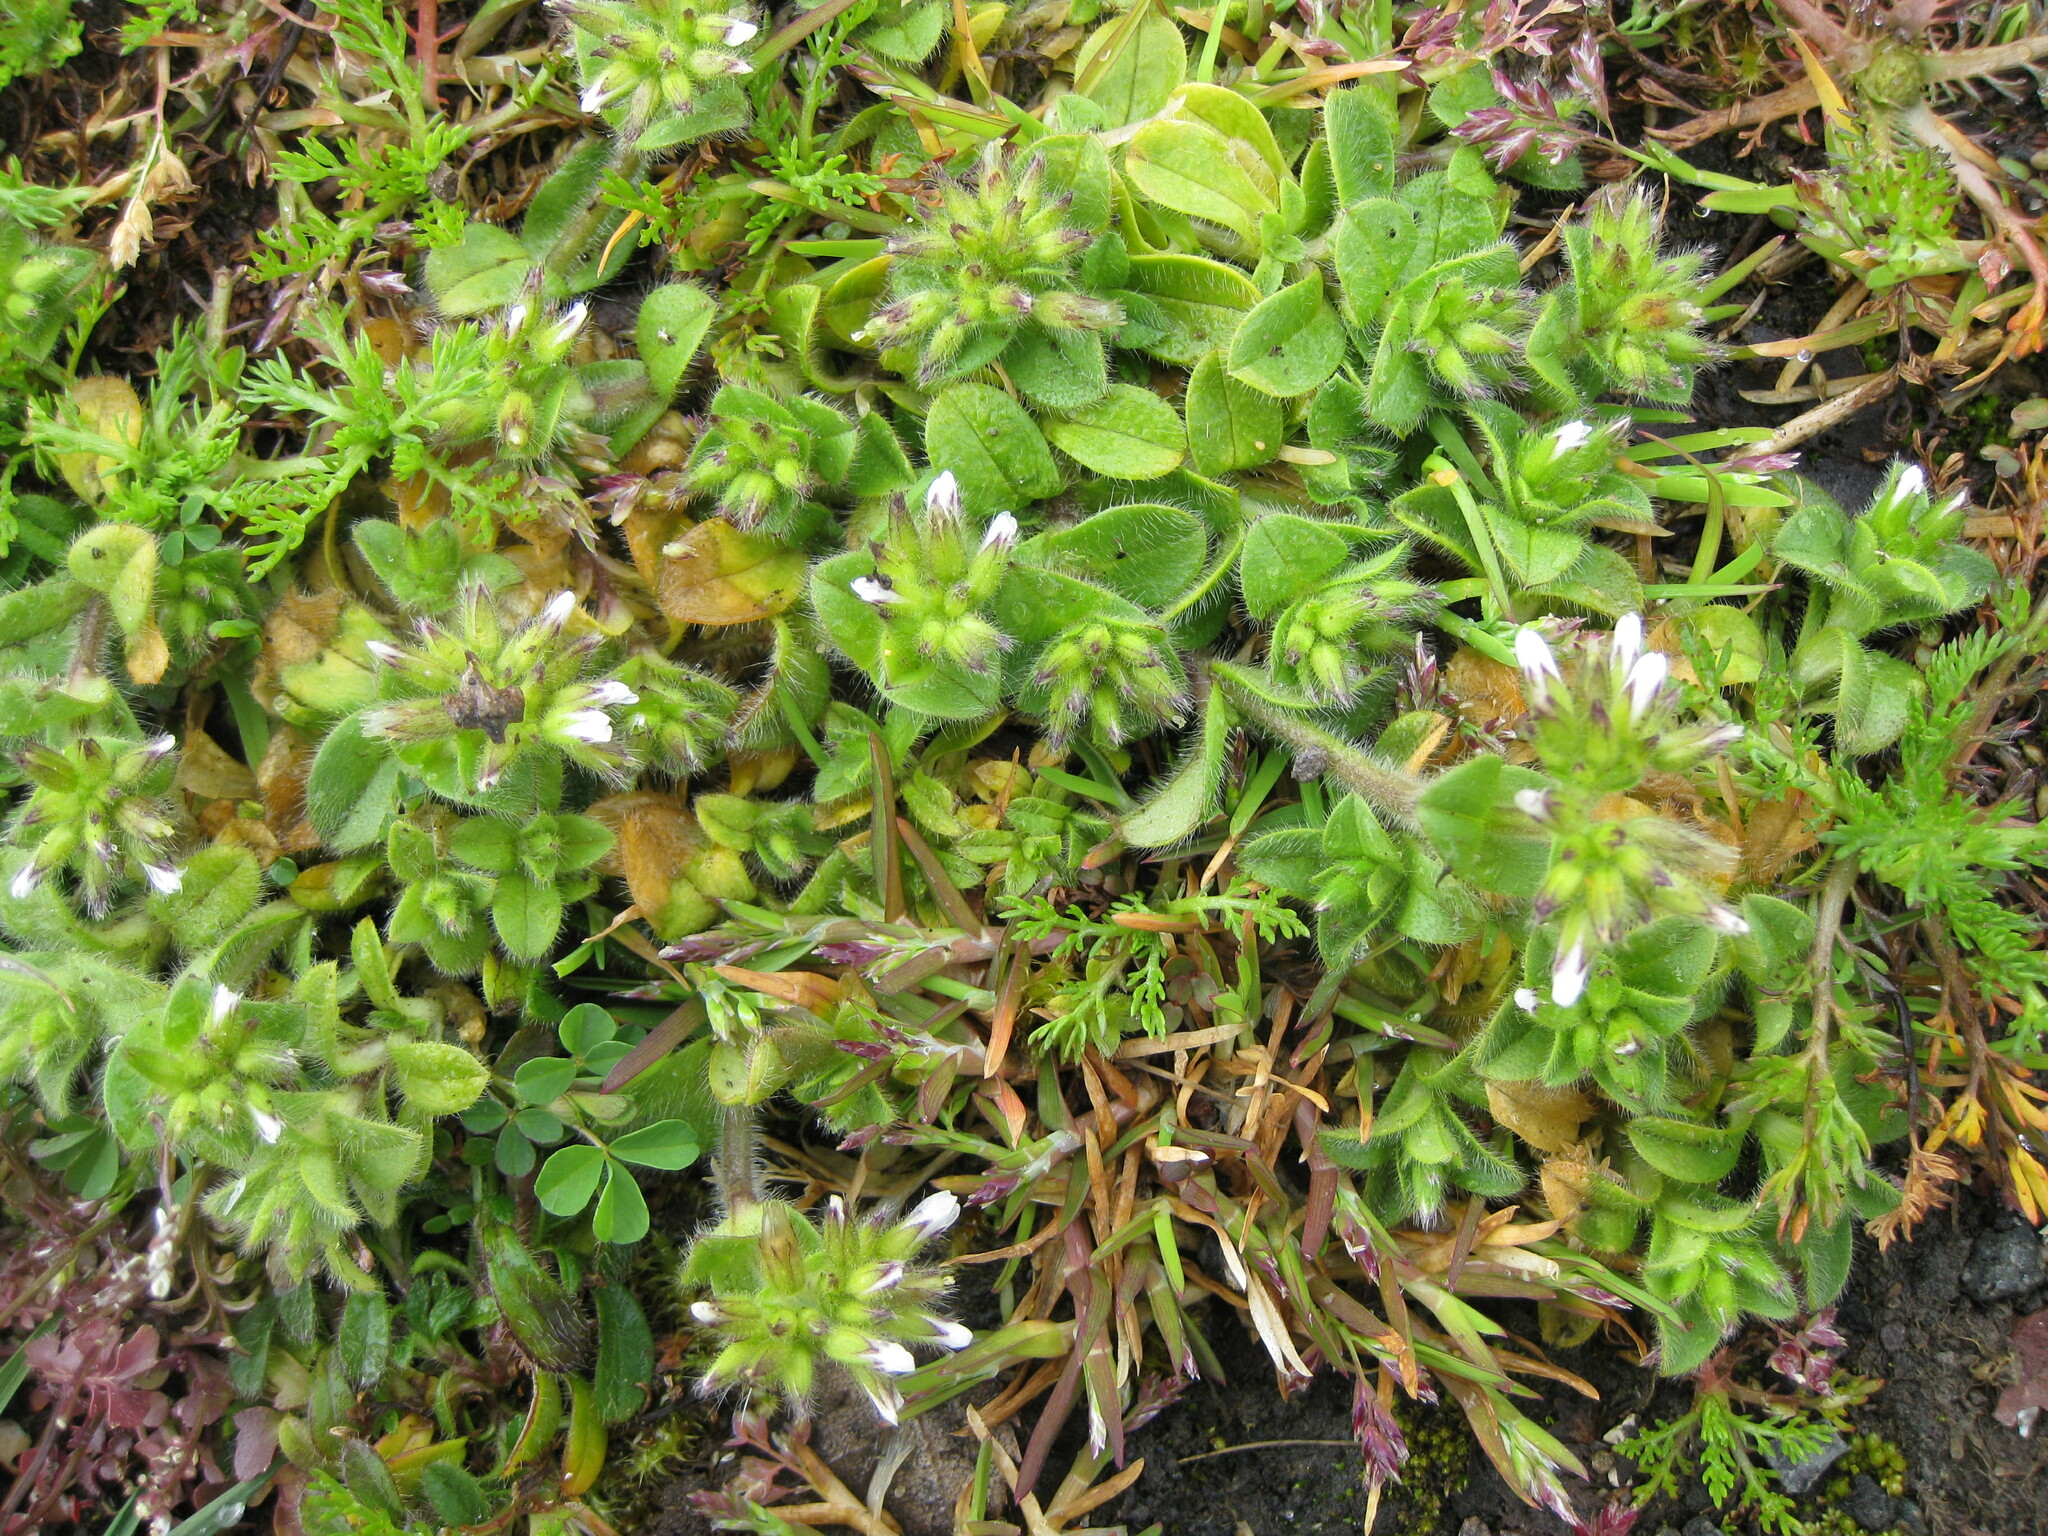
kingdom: Plantae
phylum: Tracheophyta
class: Magnoliopsida
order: Caryophyllales
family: Caryophyllaceae
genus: Cerastium
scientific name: Cerastium glomeratum
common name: Sticky chickweed
